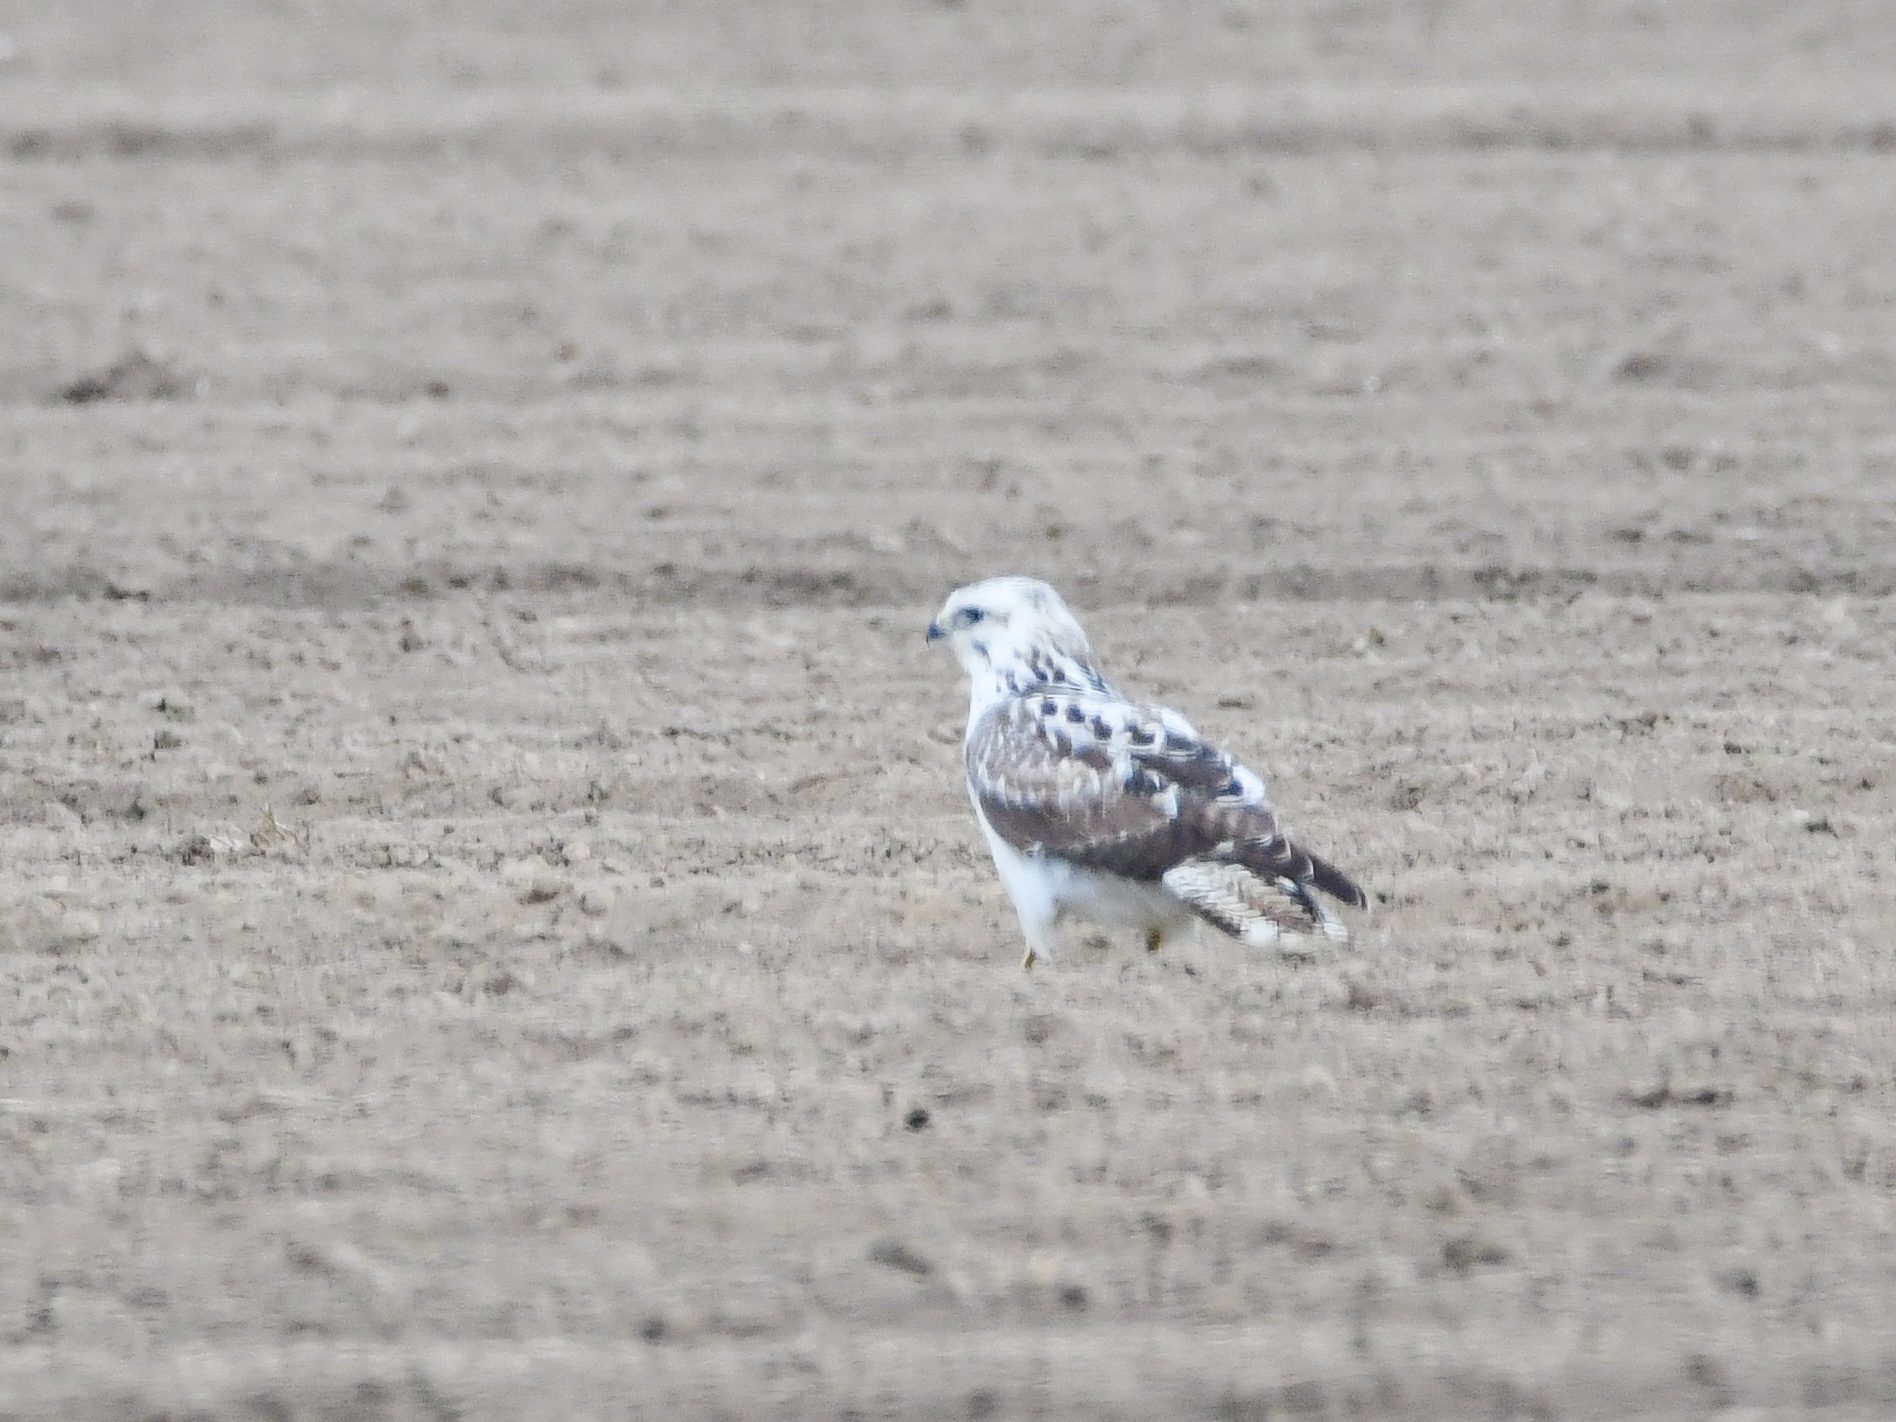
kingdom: Animalia
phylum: Chordata
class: Aves
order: Accipitriformes
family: Accipitridae
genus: Buteo
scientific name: Buteo buteo
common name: Common buzzard
